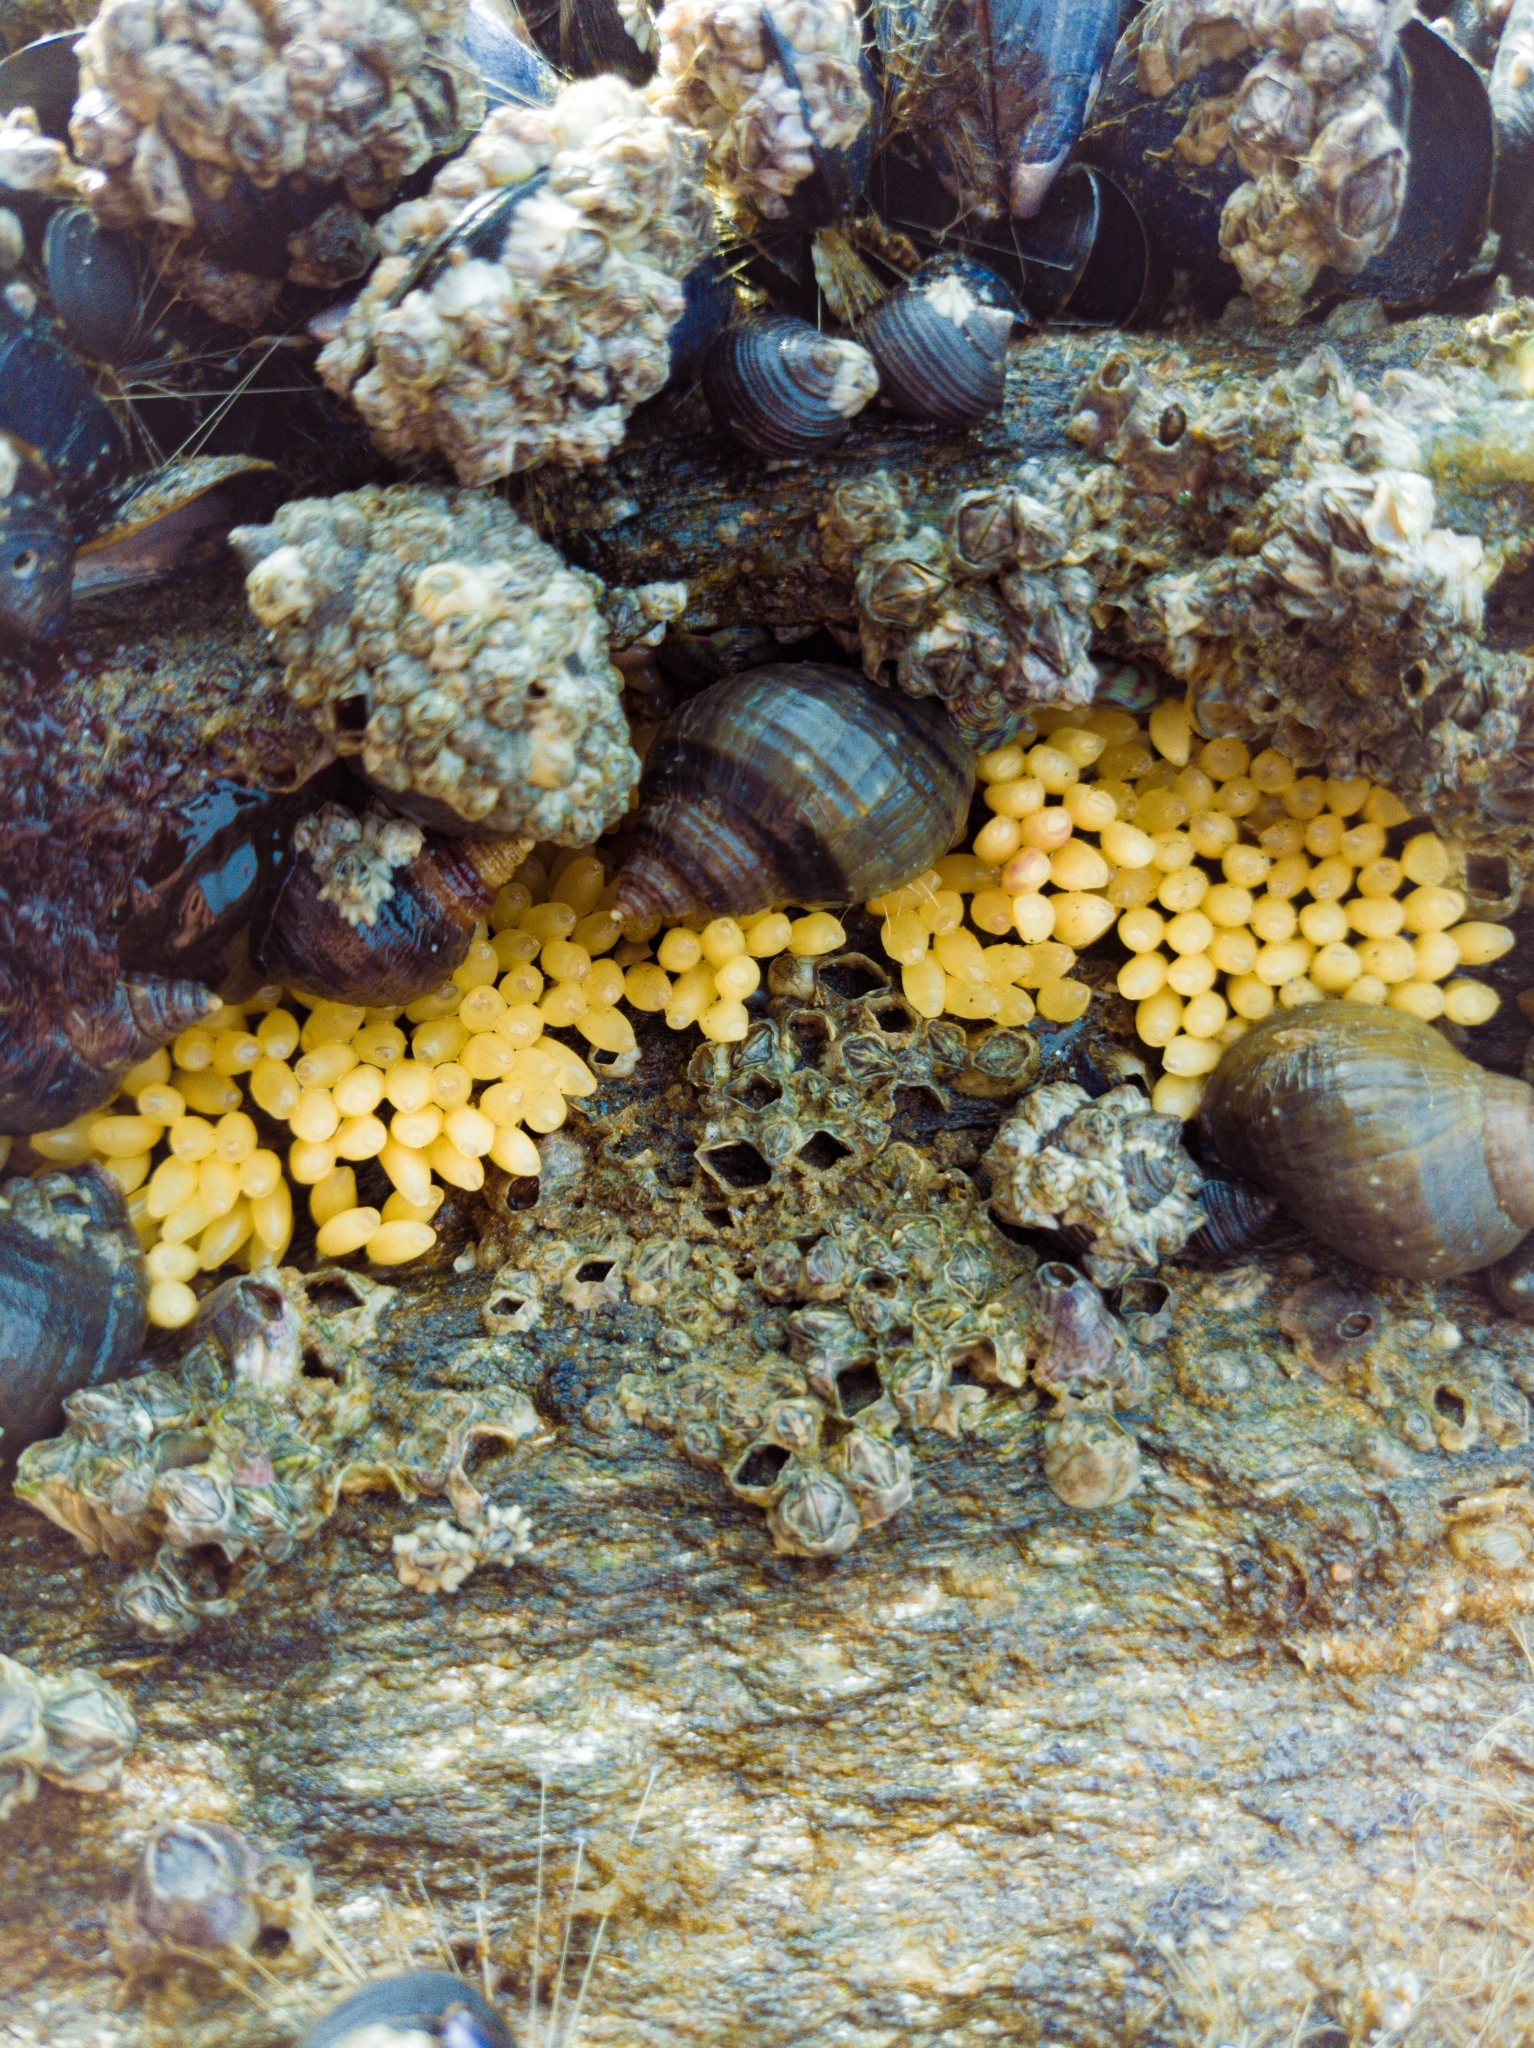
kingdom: Animalia
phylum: Mollusca
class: Gastropoda
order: Neogastropoda
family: Muricidae
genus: Nucella
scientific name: Nucella lapillus
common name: Dog whelk
